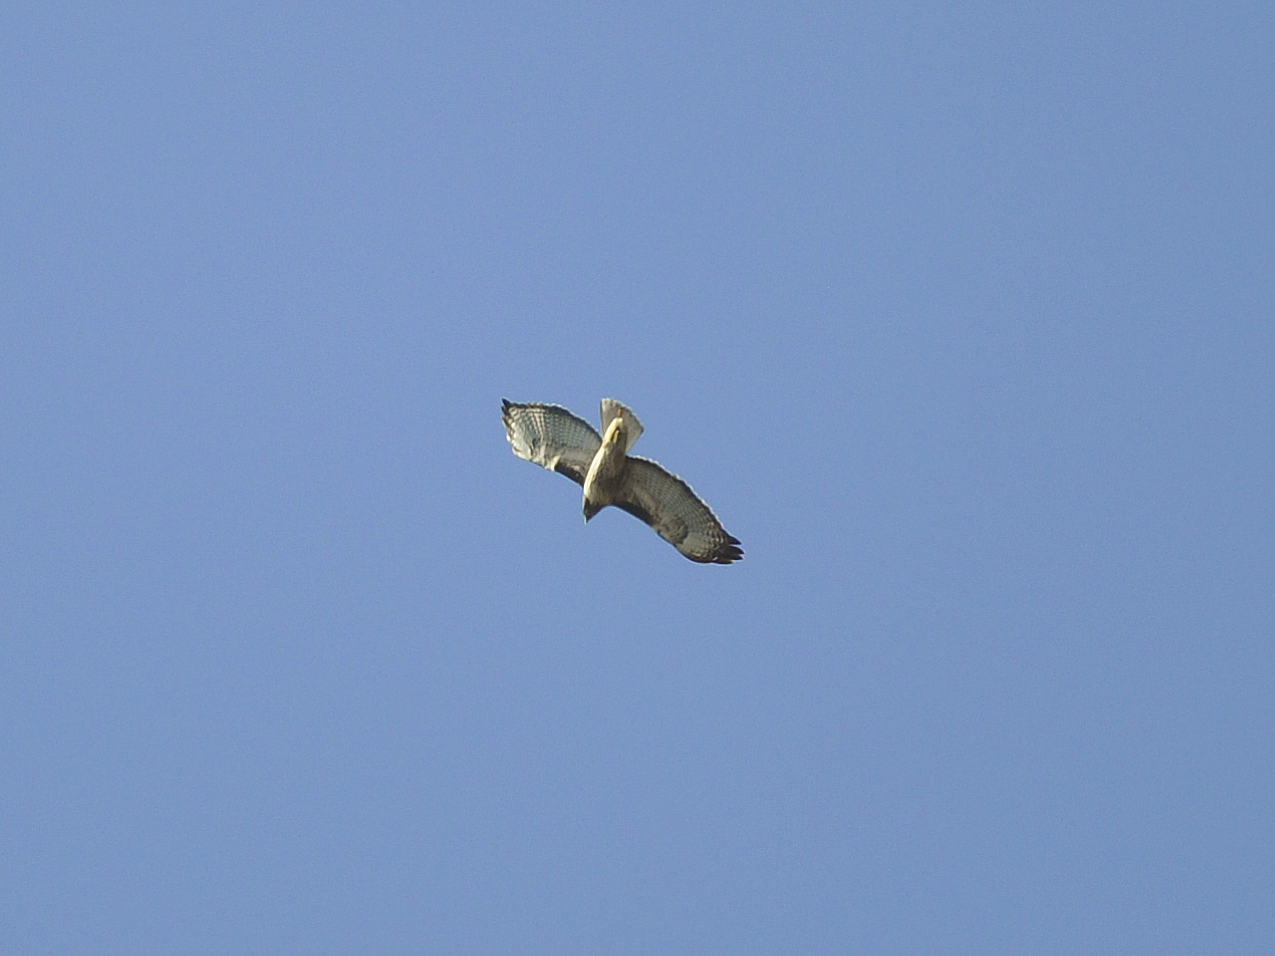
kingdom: Animalia
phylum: Chordata
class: Aves
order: Accipitriformes
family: Accipitridae
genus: Buteo
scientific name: Buteo jamaicensis
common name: Red-tailed hawk
